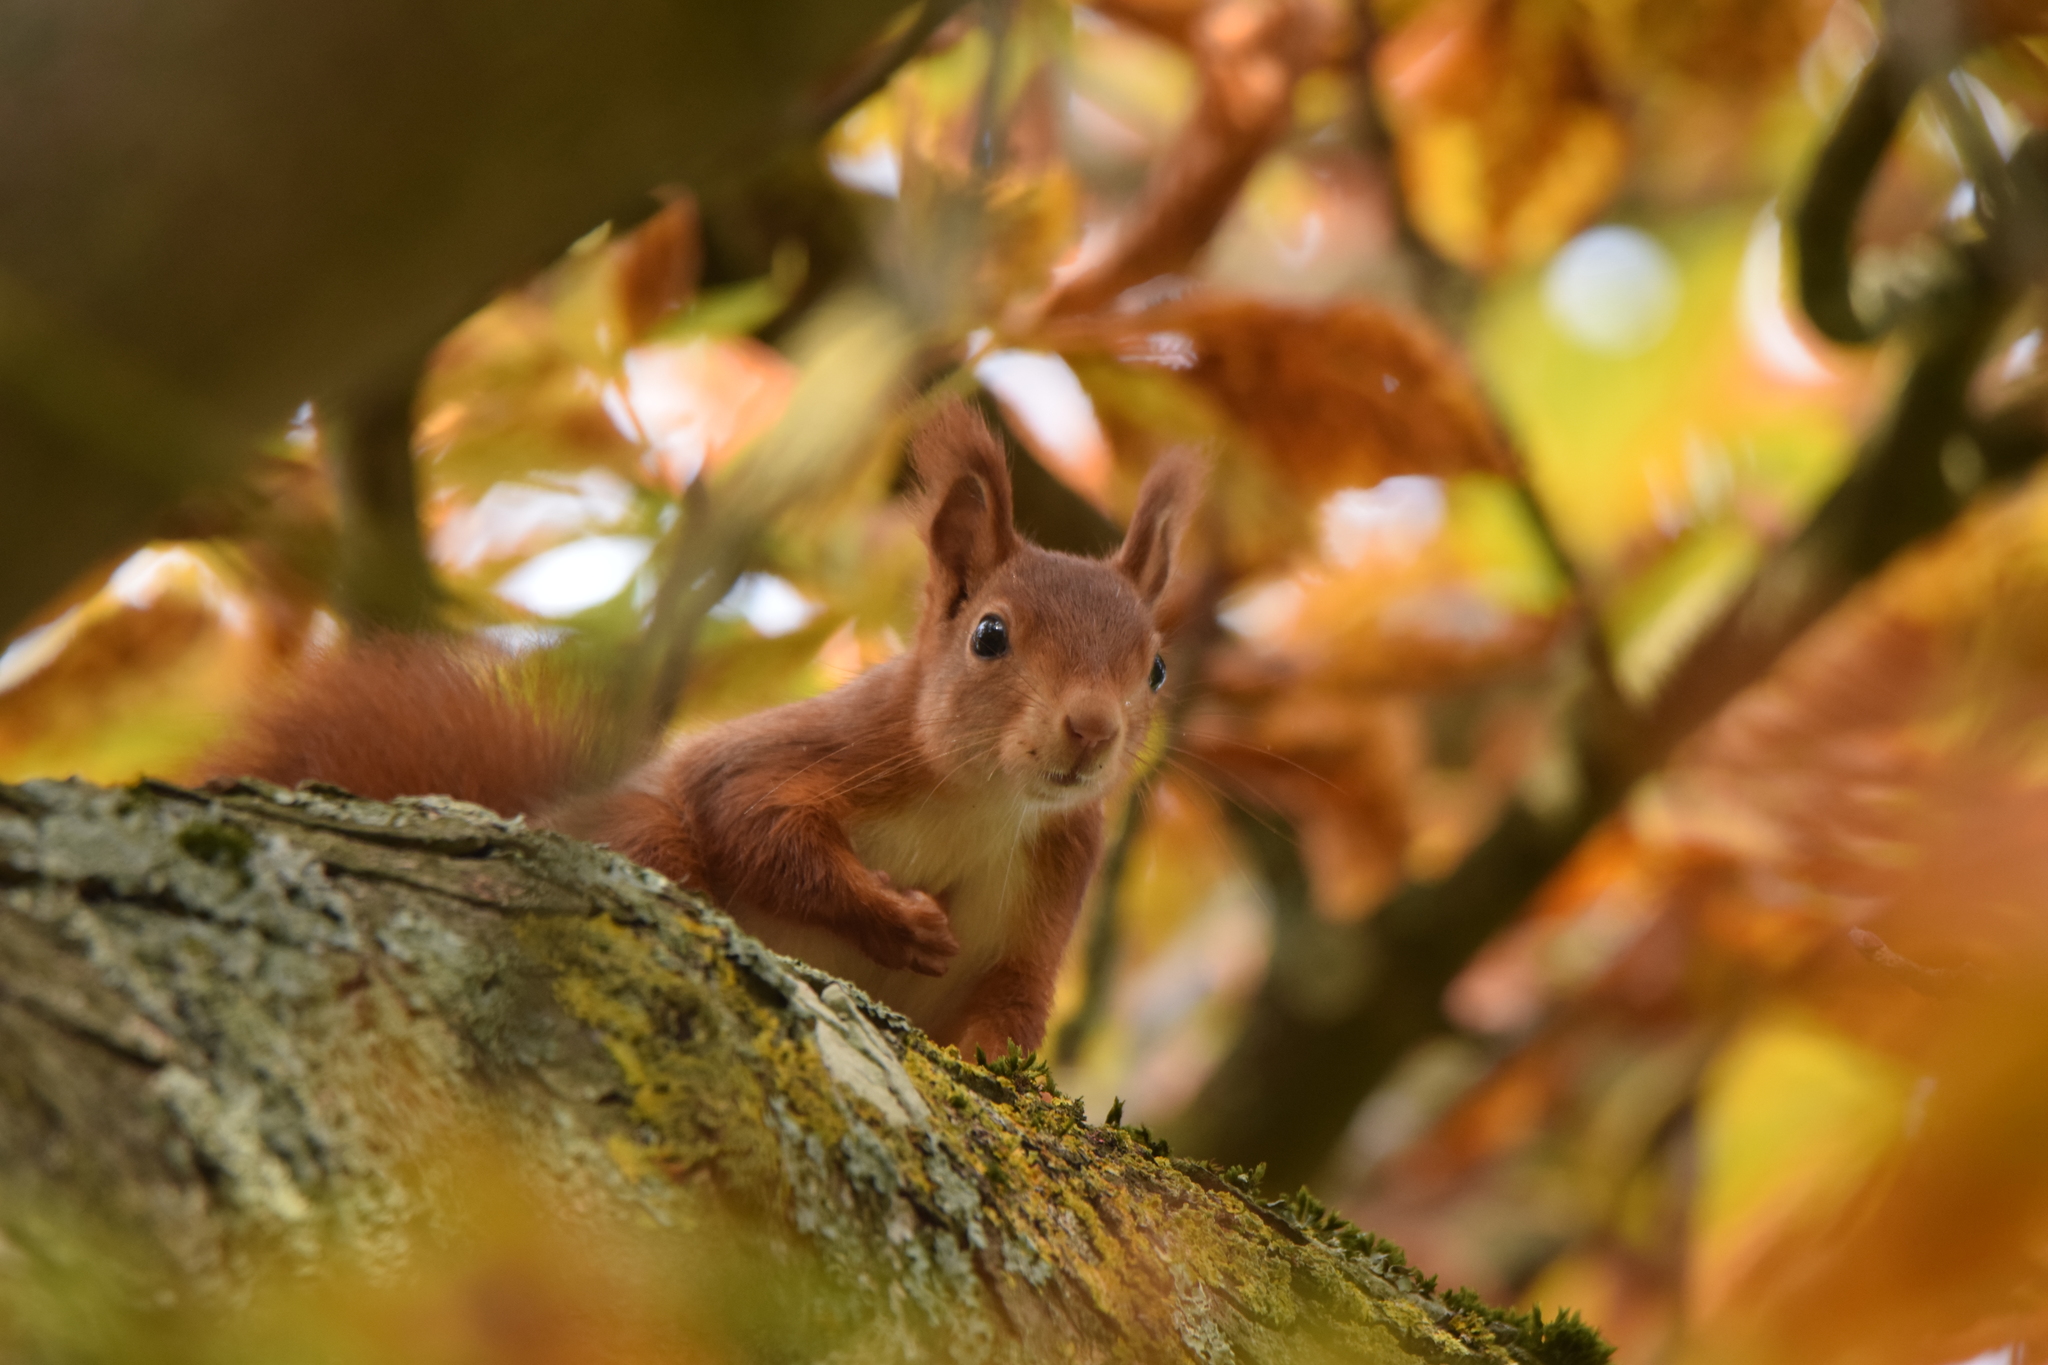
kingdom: Animalia
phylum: Chordata
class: Mammalia
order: Rodentia
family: Sciuridae
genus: Sciurus
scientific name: Sciurus vulgaris
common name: Eurasian red squirrel
